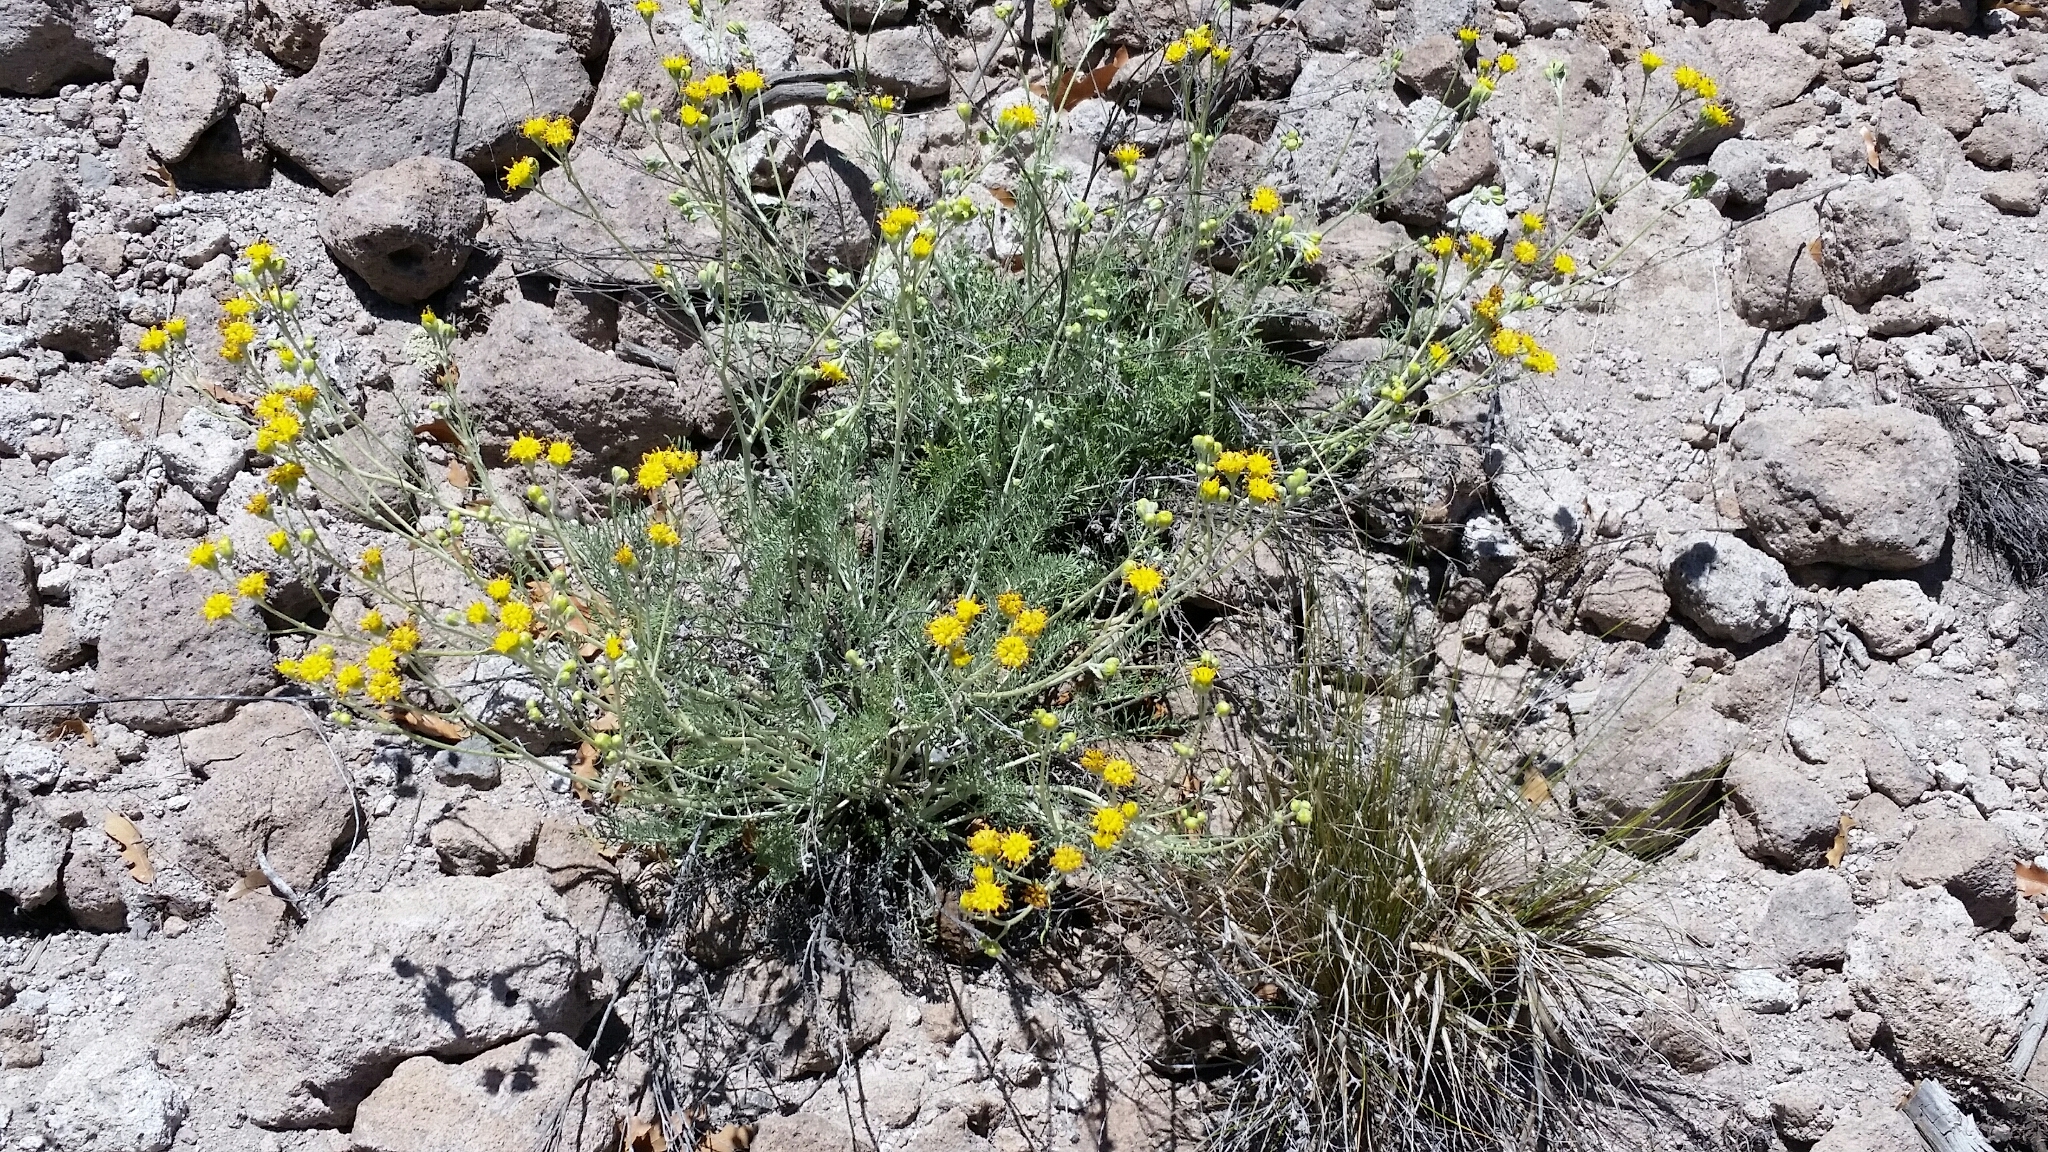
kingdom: Plantae
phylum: Tracheophyta
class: Magnoliopsida
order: Asterales
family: Asteraceae
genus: Hymenopappus
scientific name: Hymenopappus filifolius
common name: Columbia cutleaf
